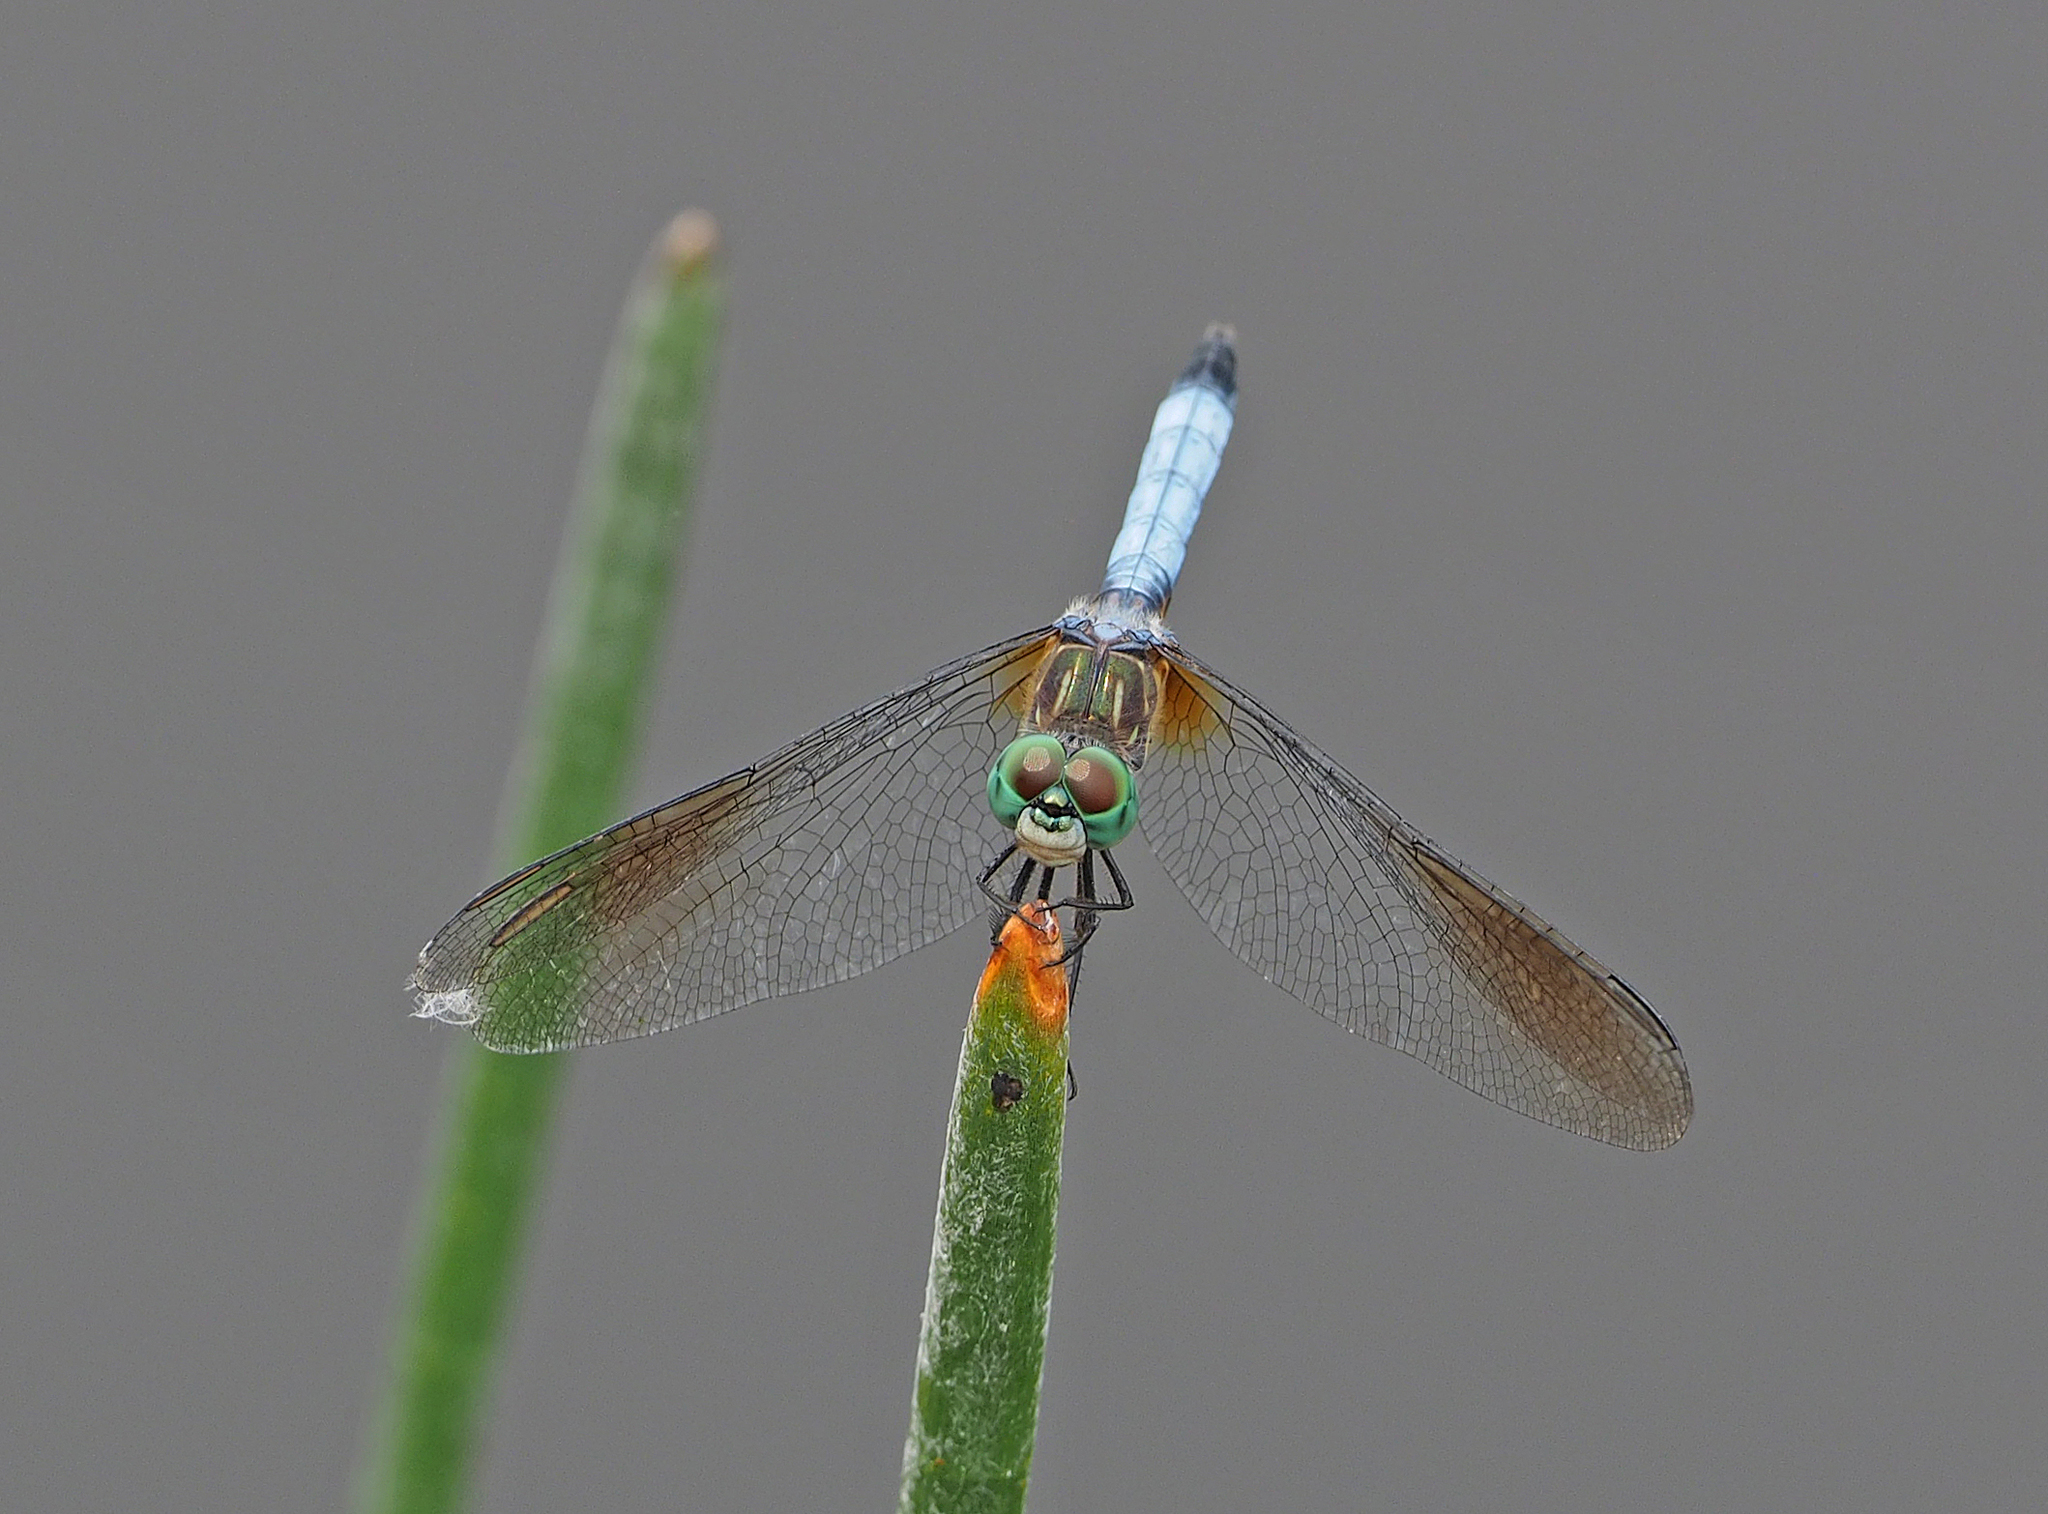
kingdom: Animalia
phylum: Arthropoda
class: Insecta
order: Odonata
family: Libellulidae
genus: Pachydiplax
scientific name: Pachydiplax longipennis
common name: Blue dasher
